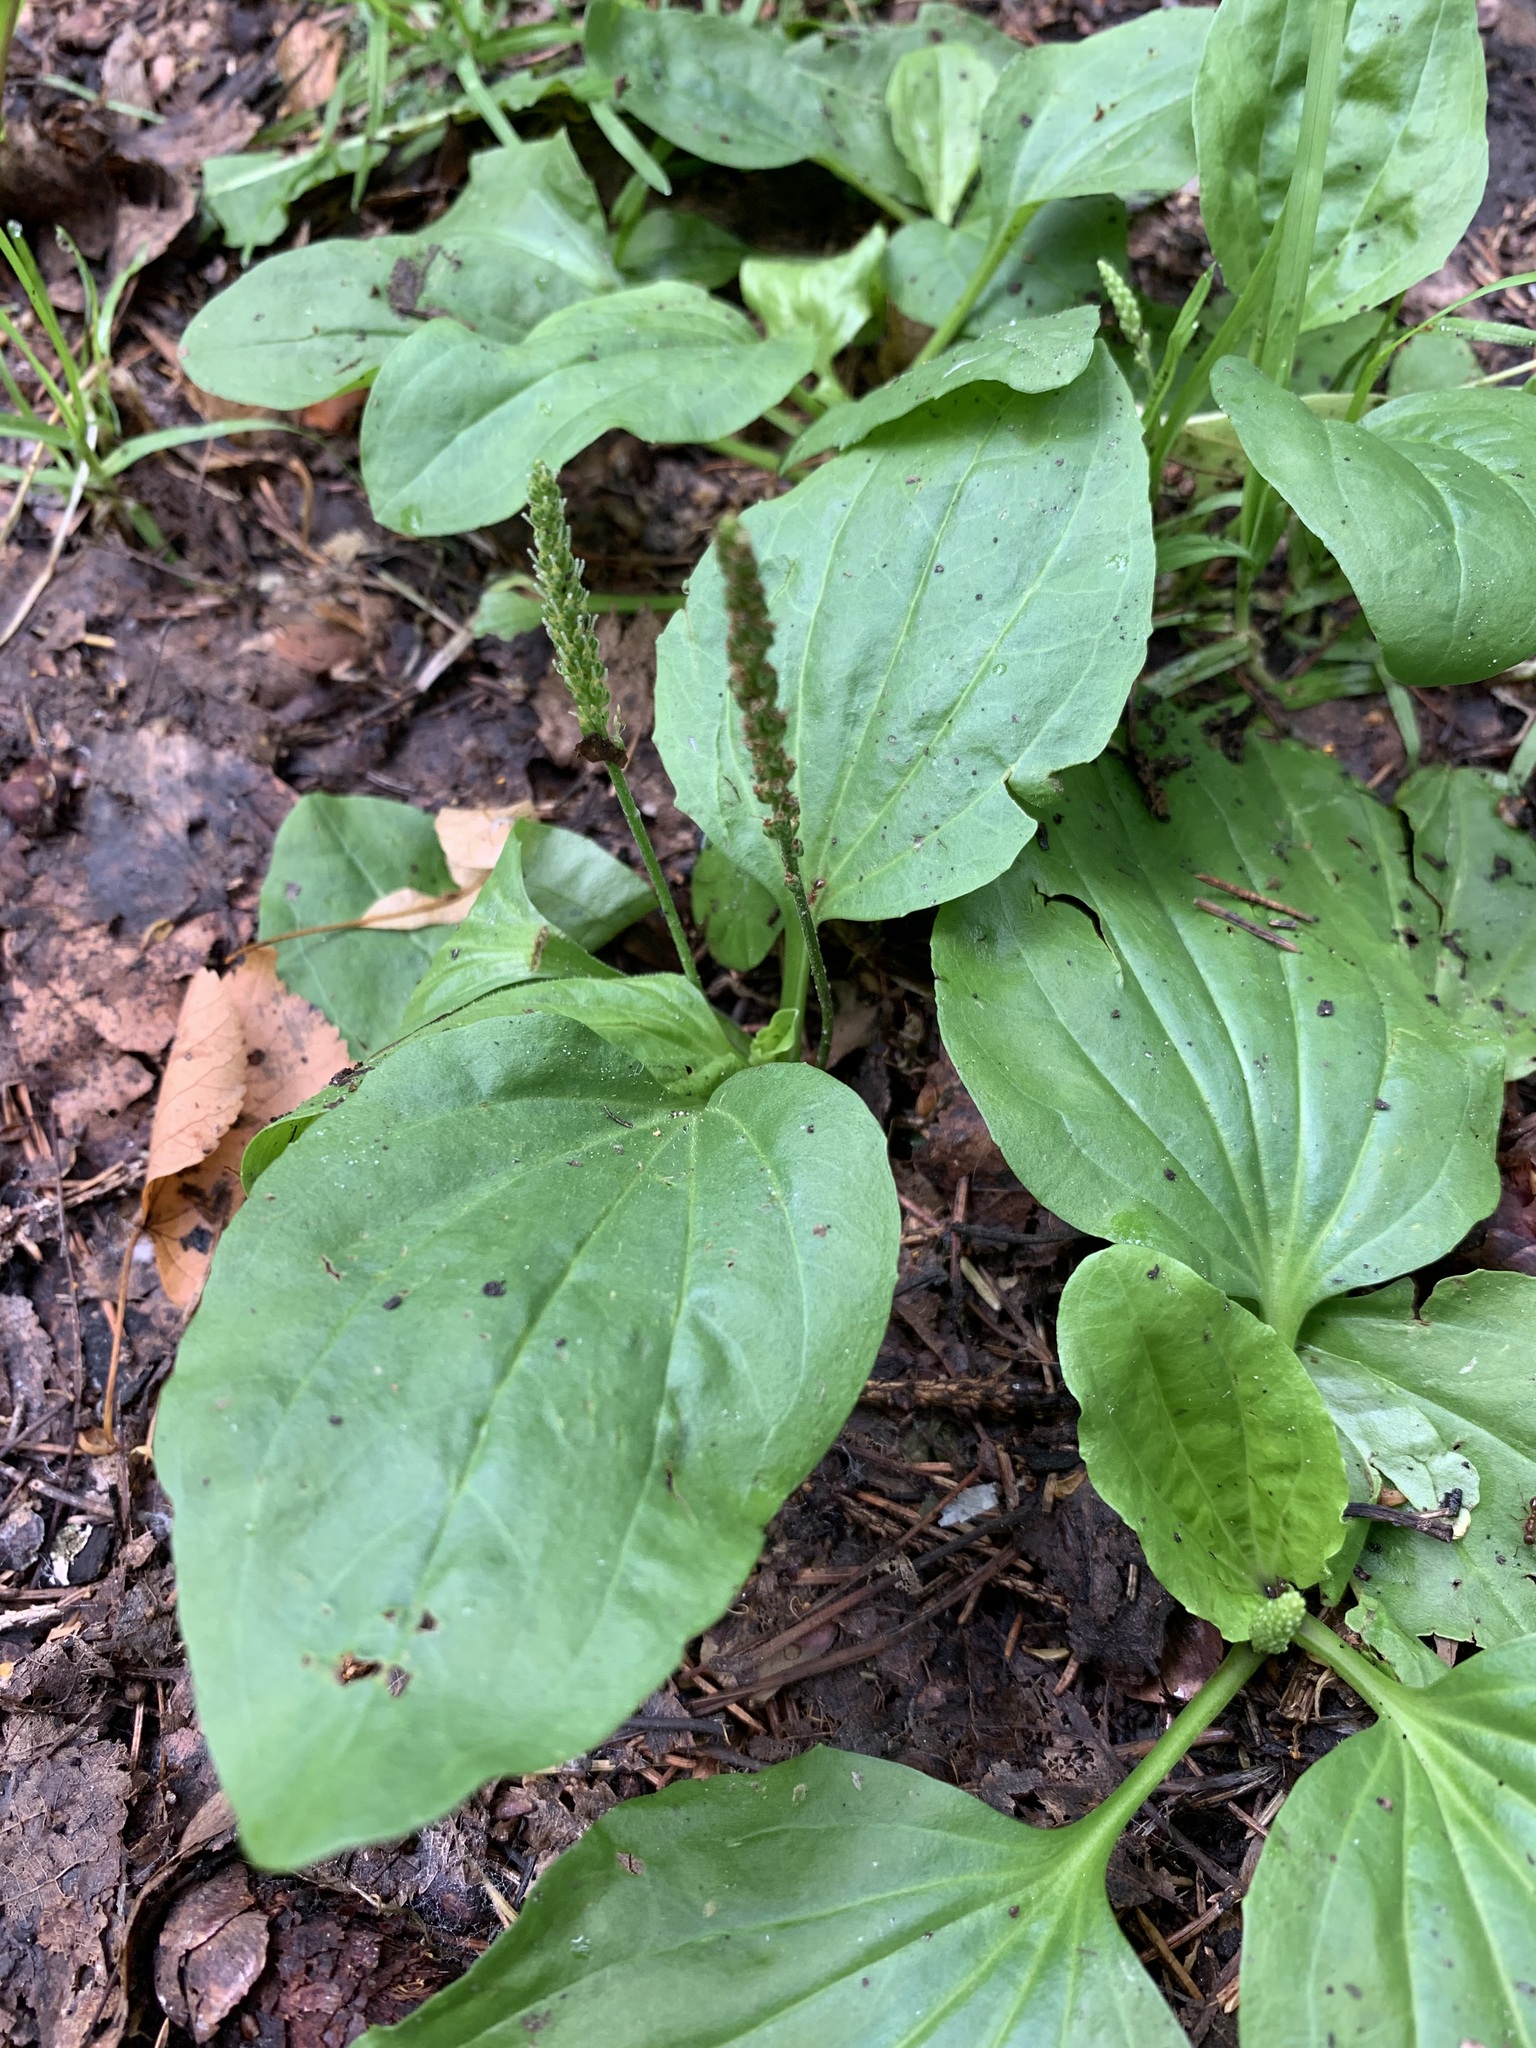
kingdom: Plantae
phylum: Tracheophyta
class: Magnoliopsida
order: Lamiales
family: Plantaginaceae
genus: Plantago
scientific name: Plantago major
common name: Common plantain
